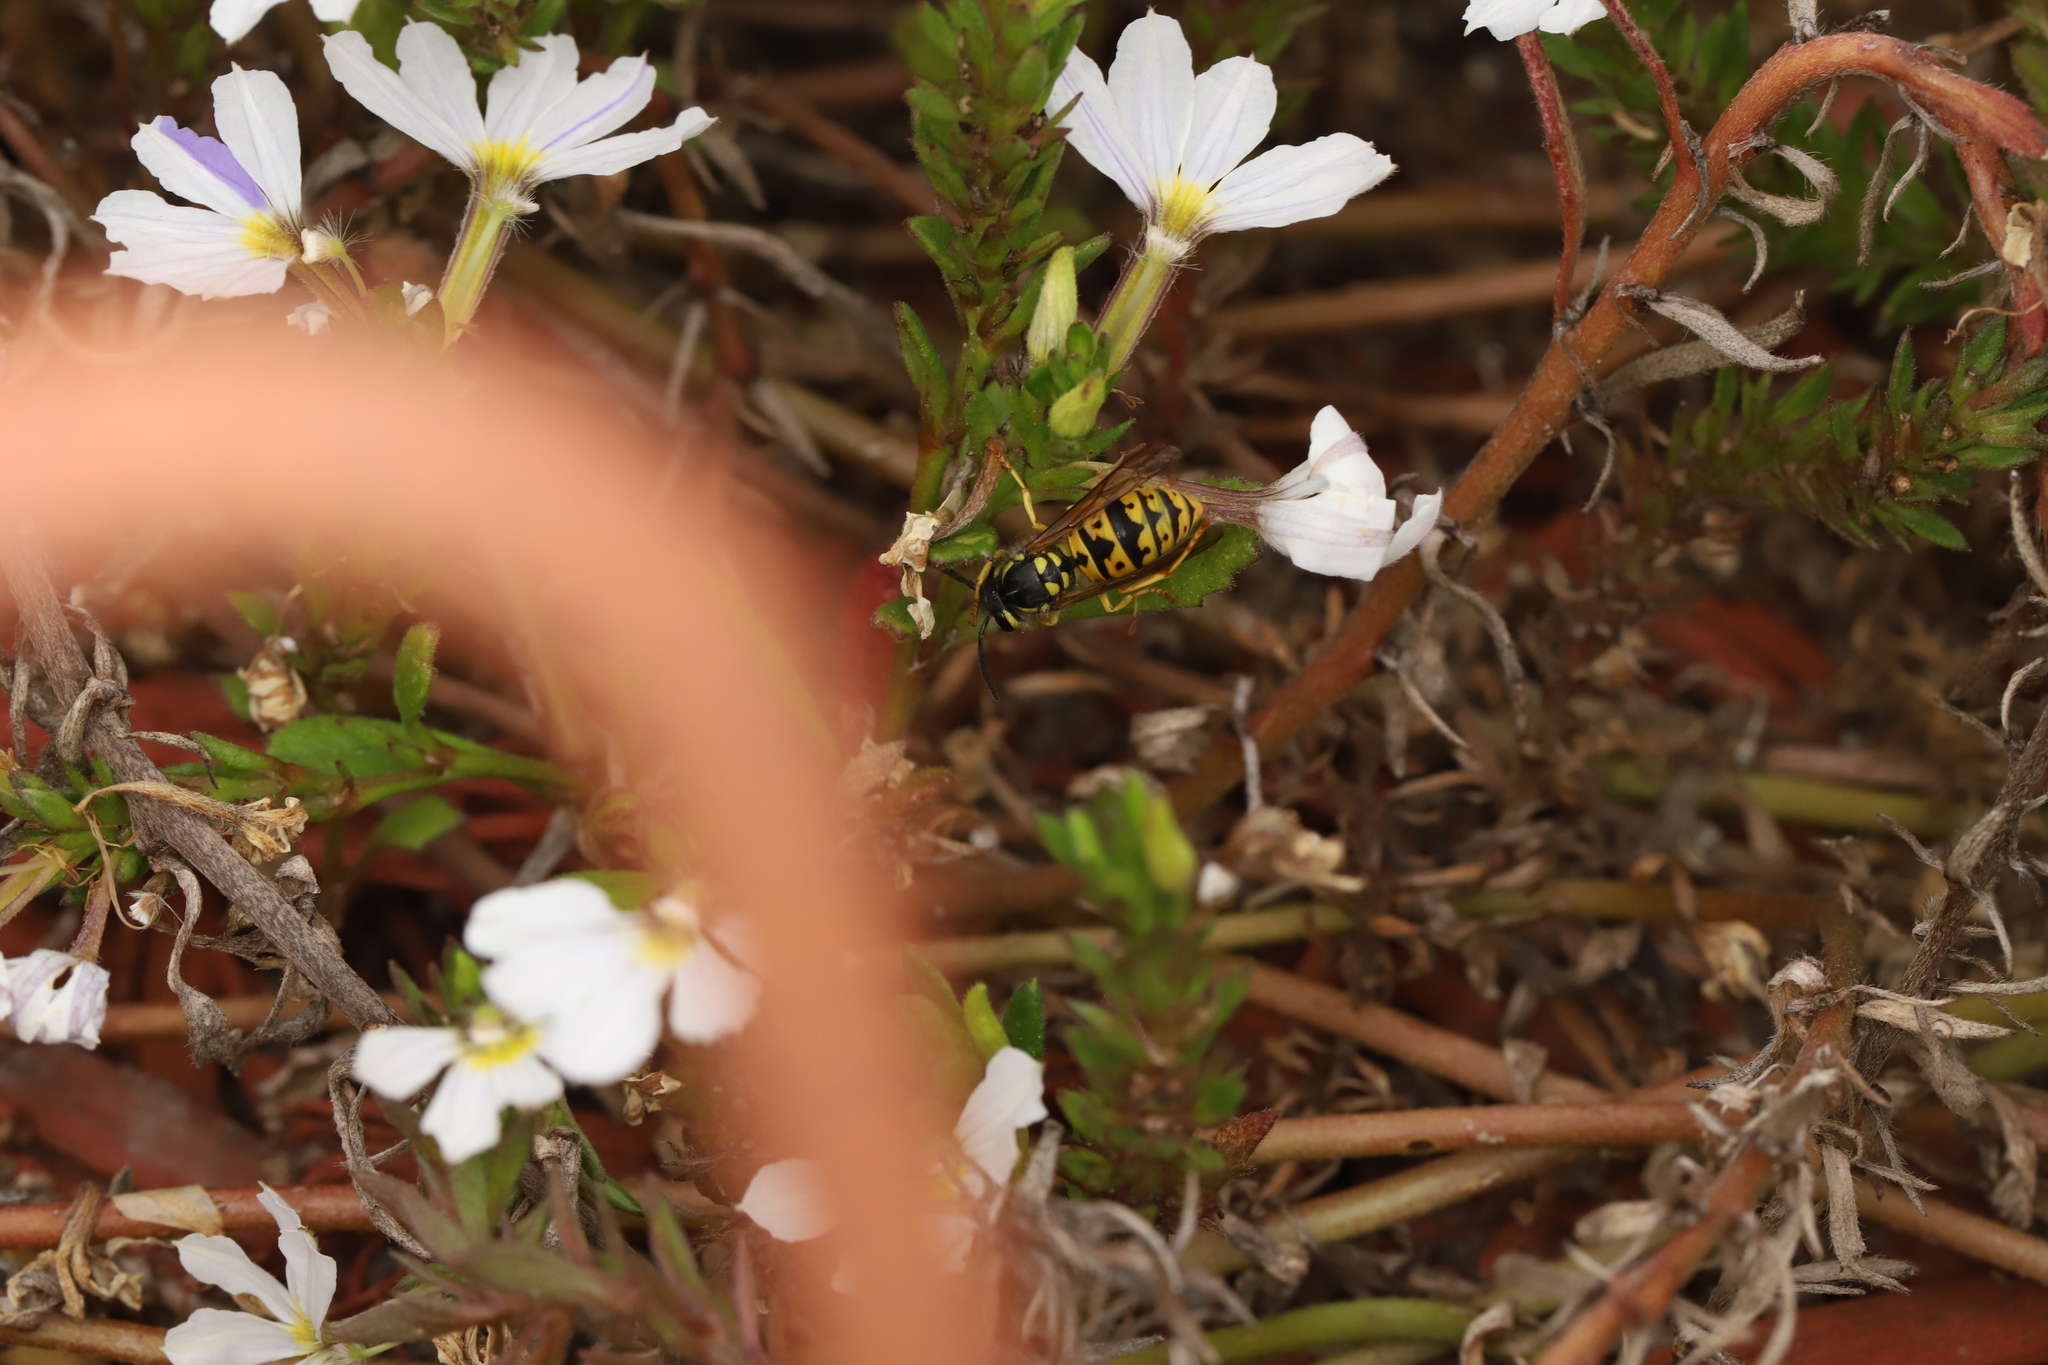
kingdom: Animalia
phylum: Arthropoda
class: Insecta
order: Hymenoptera
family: Vespidae
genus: Vespula
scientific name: Vespula germanica
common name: German wasp
